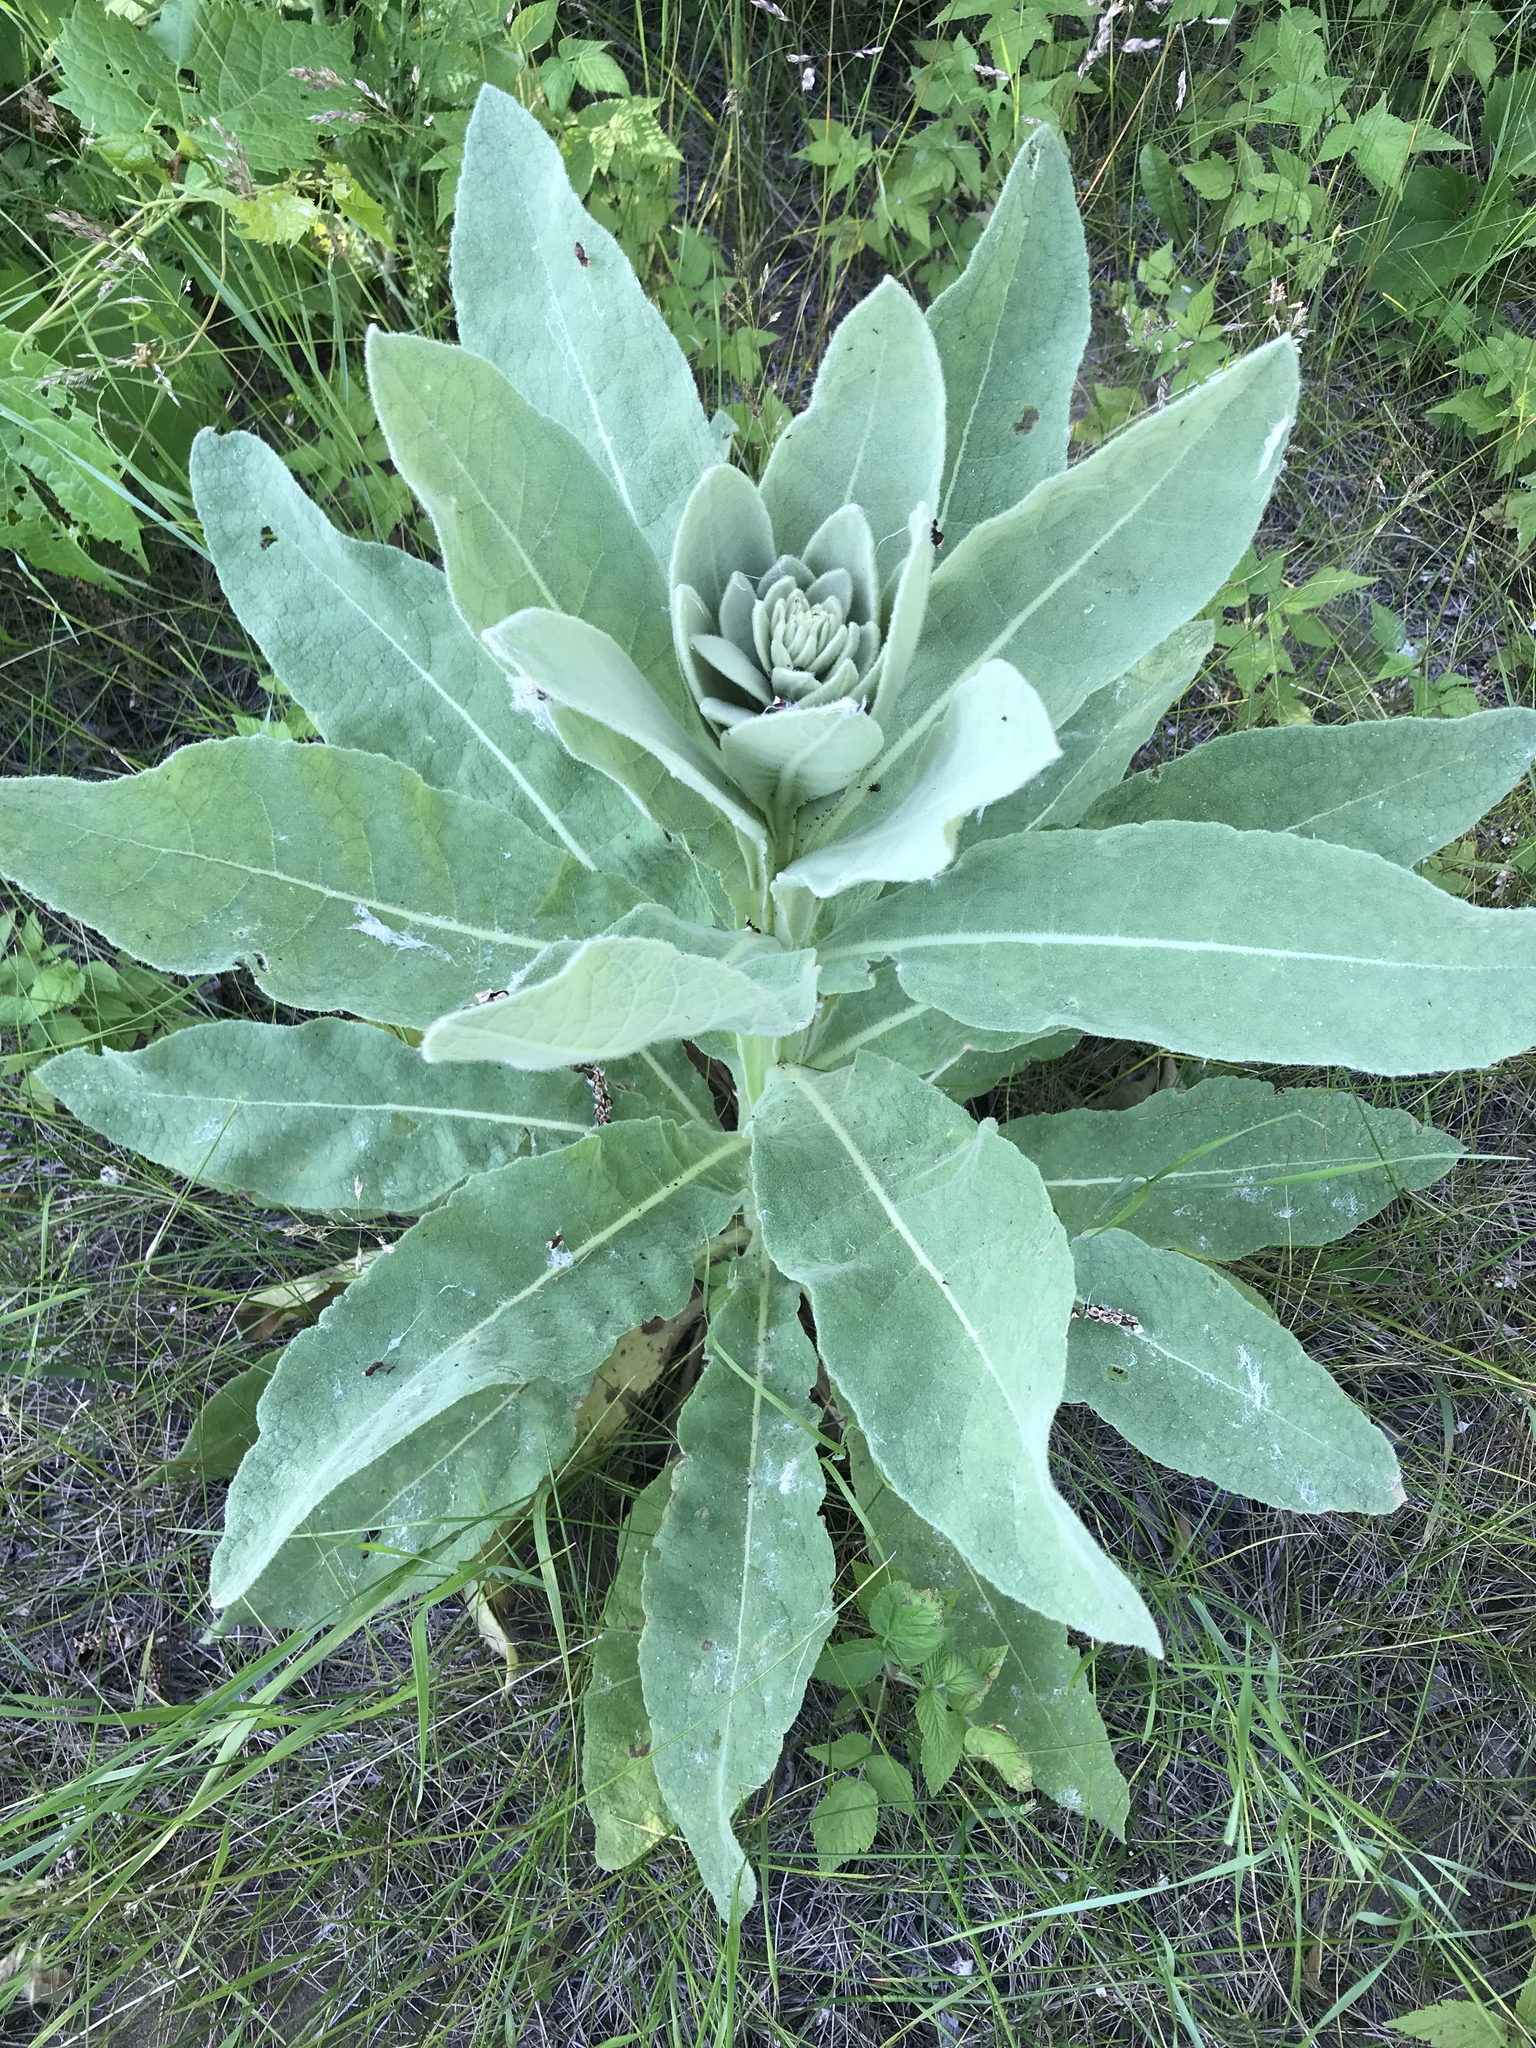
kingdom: Plantae
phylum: Tracheophyta
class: Magnoliopsida
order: Lamiales
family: Scrophulariaceae
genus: Verbascum
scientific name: Verbascum thapsus
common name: Common mullein
